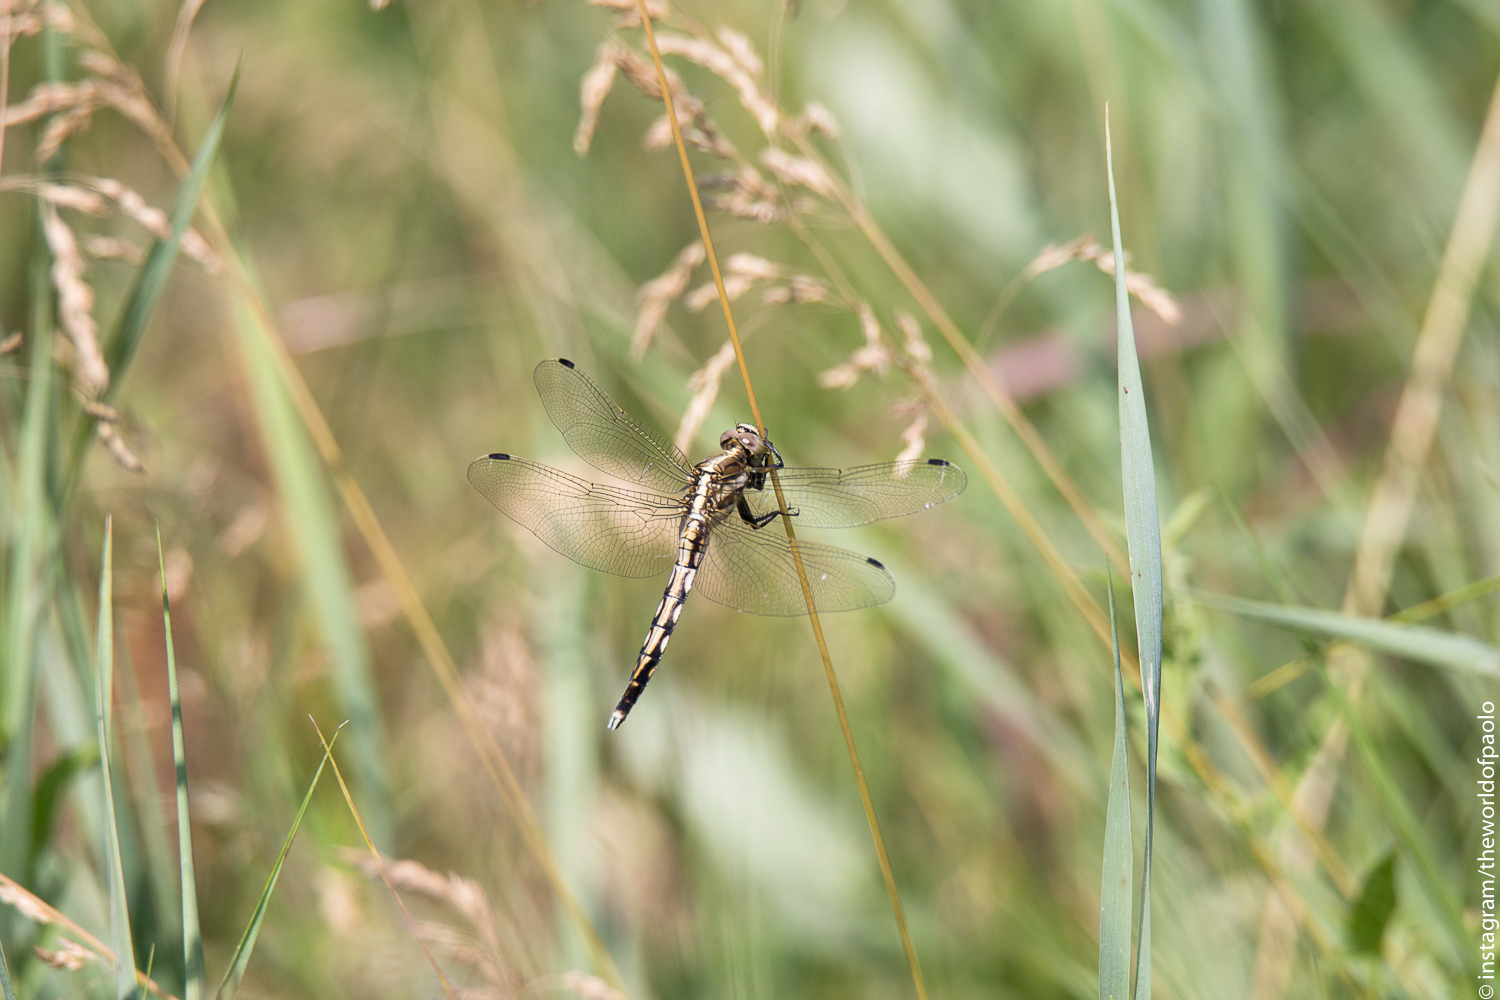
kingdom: Animalia
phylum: Arthropoda
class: Insecta
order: Odonata
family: Libellulidae
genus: Orthetrum
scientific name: Orthetrum albistylum
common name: White-tailed skimmer
